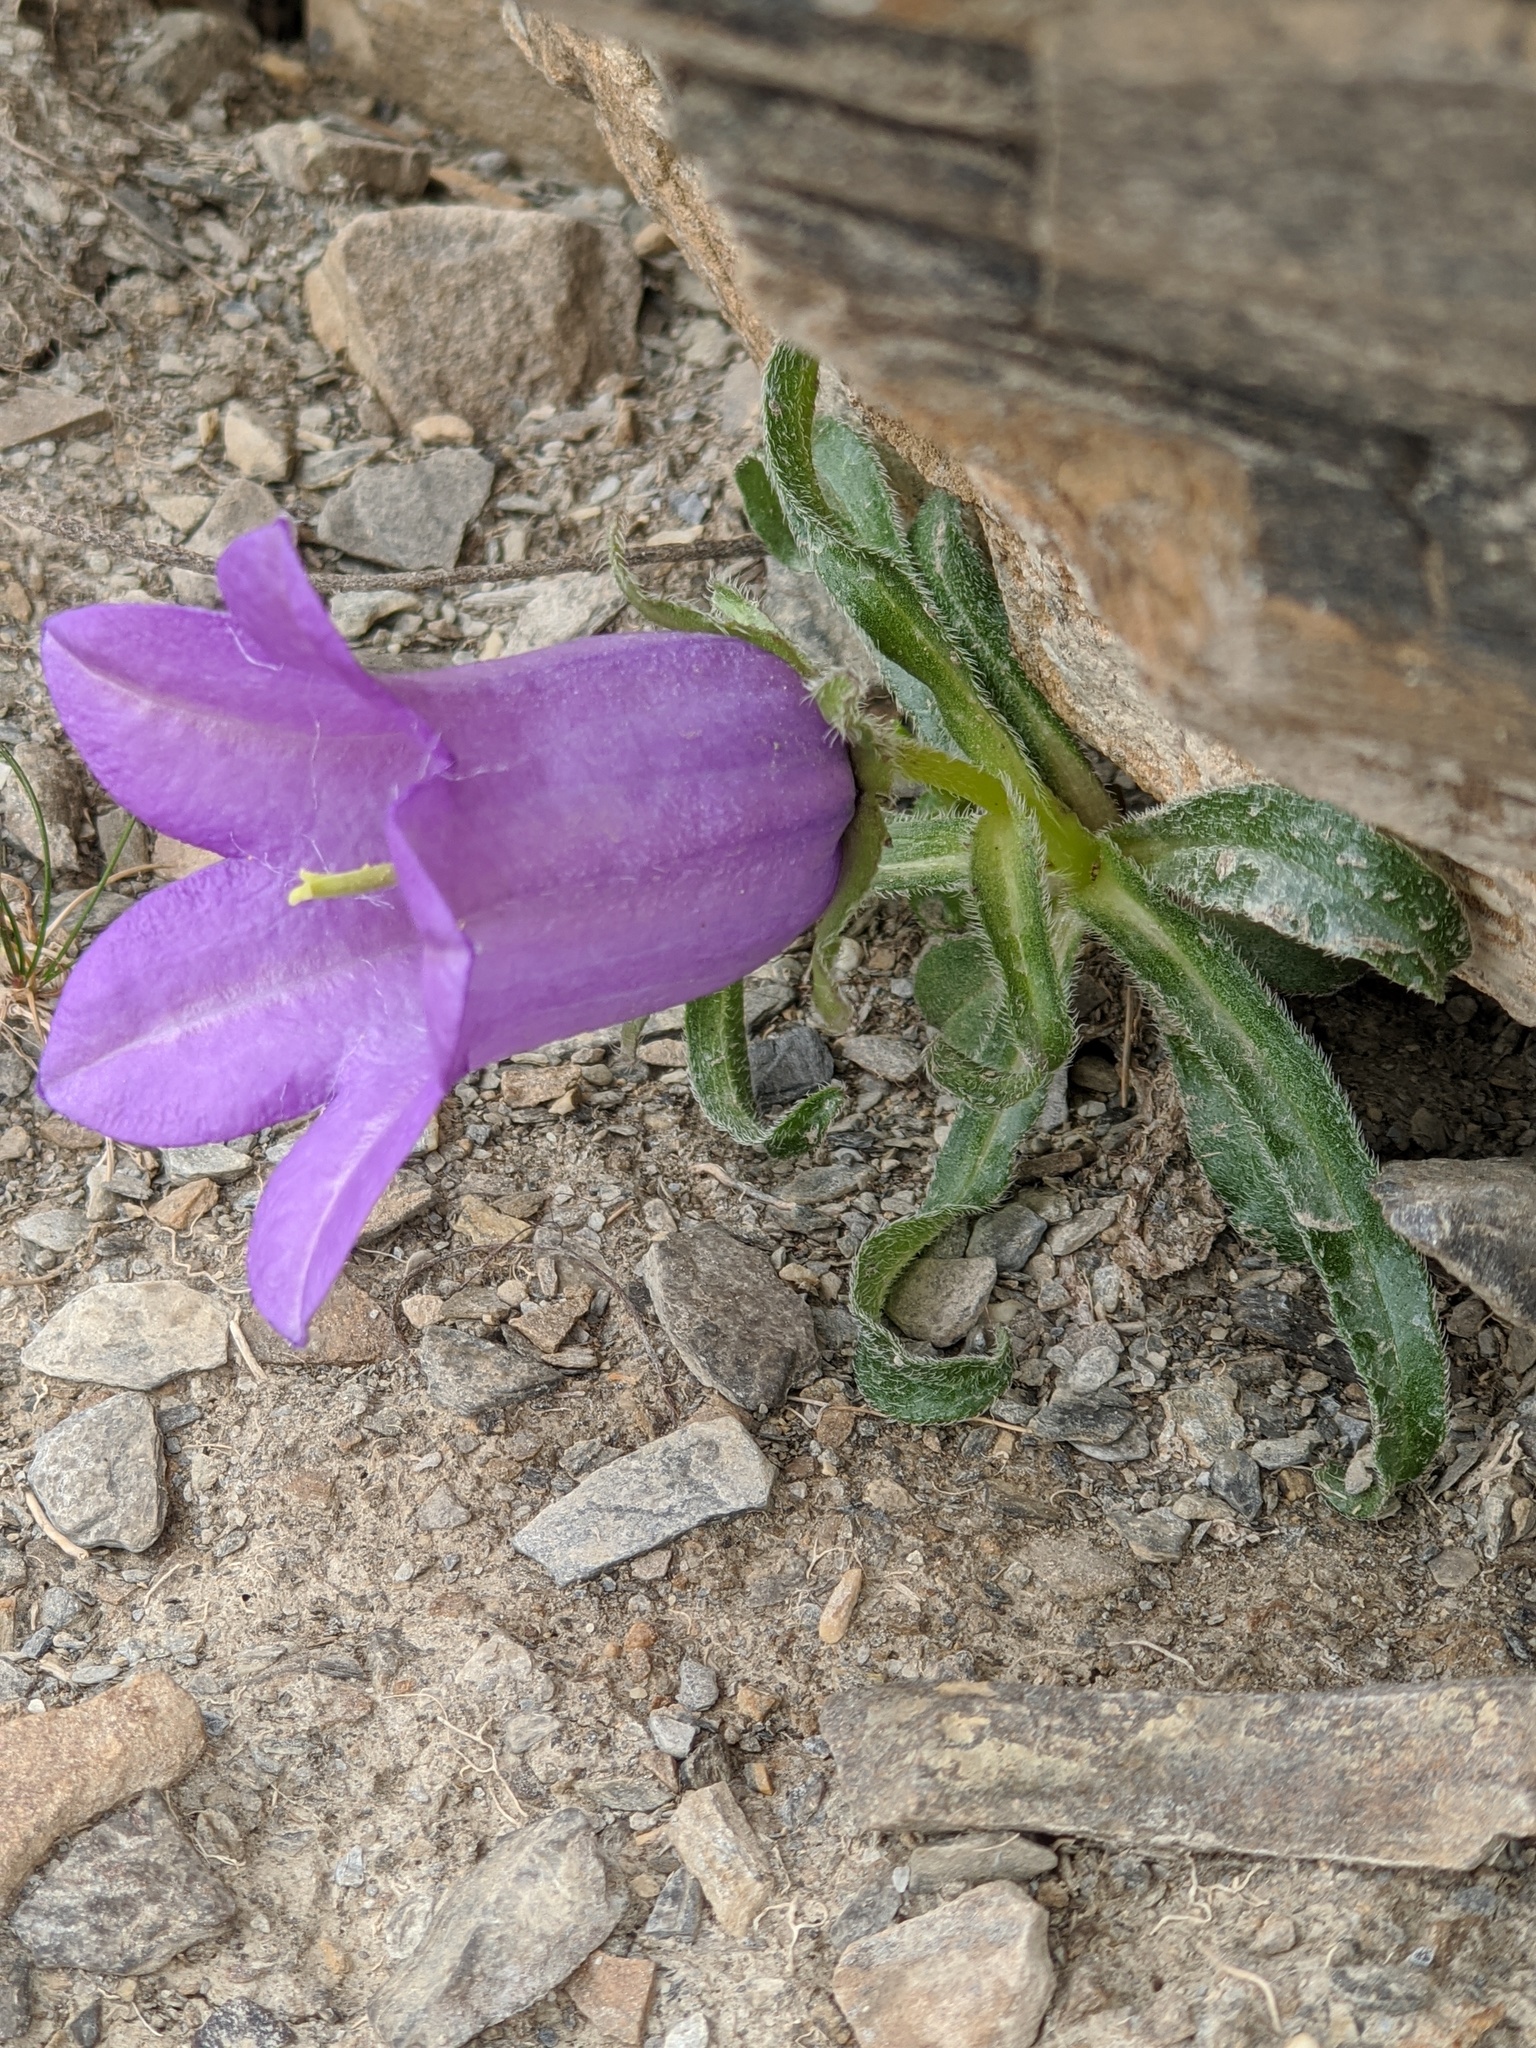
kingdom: Plantae
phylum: Tracheophyta
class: Magnoliopsida
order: Asterales
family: Campanulaceae
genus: Campanula
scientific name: Campanula alpestris
